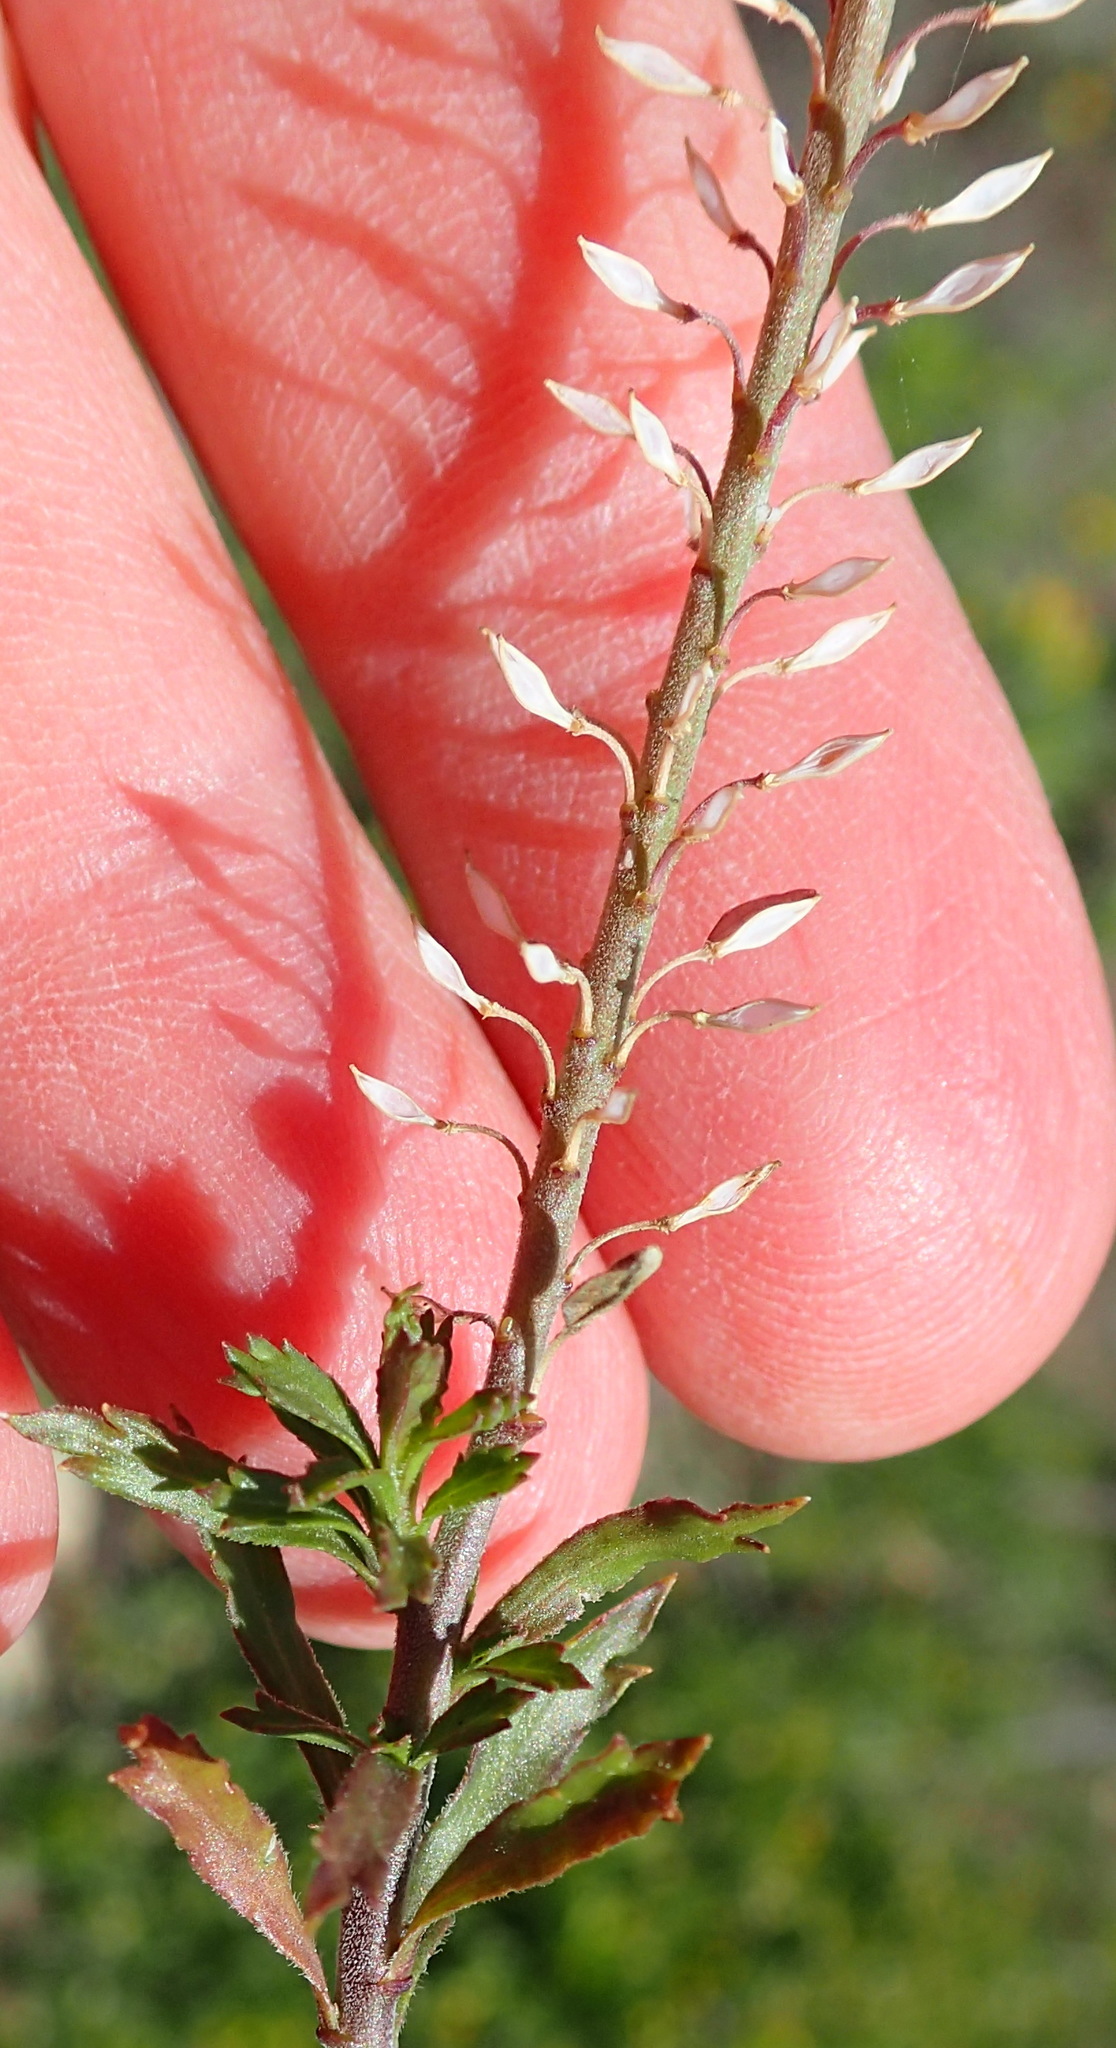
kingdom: Plantae
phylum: Tracheophyta
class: Magnoliopsida
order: Brassicales
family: Brassicaceae
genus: Lepidium
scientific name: Lepidium africanum
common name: African pepperwort
